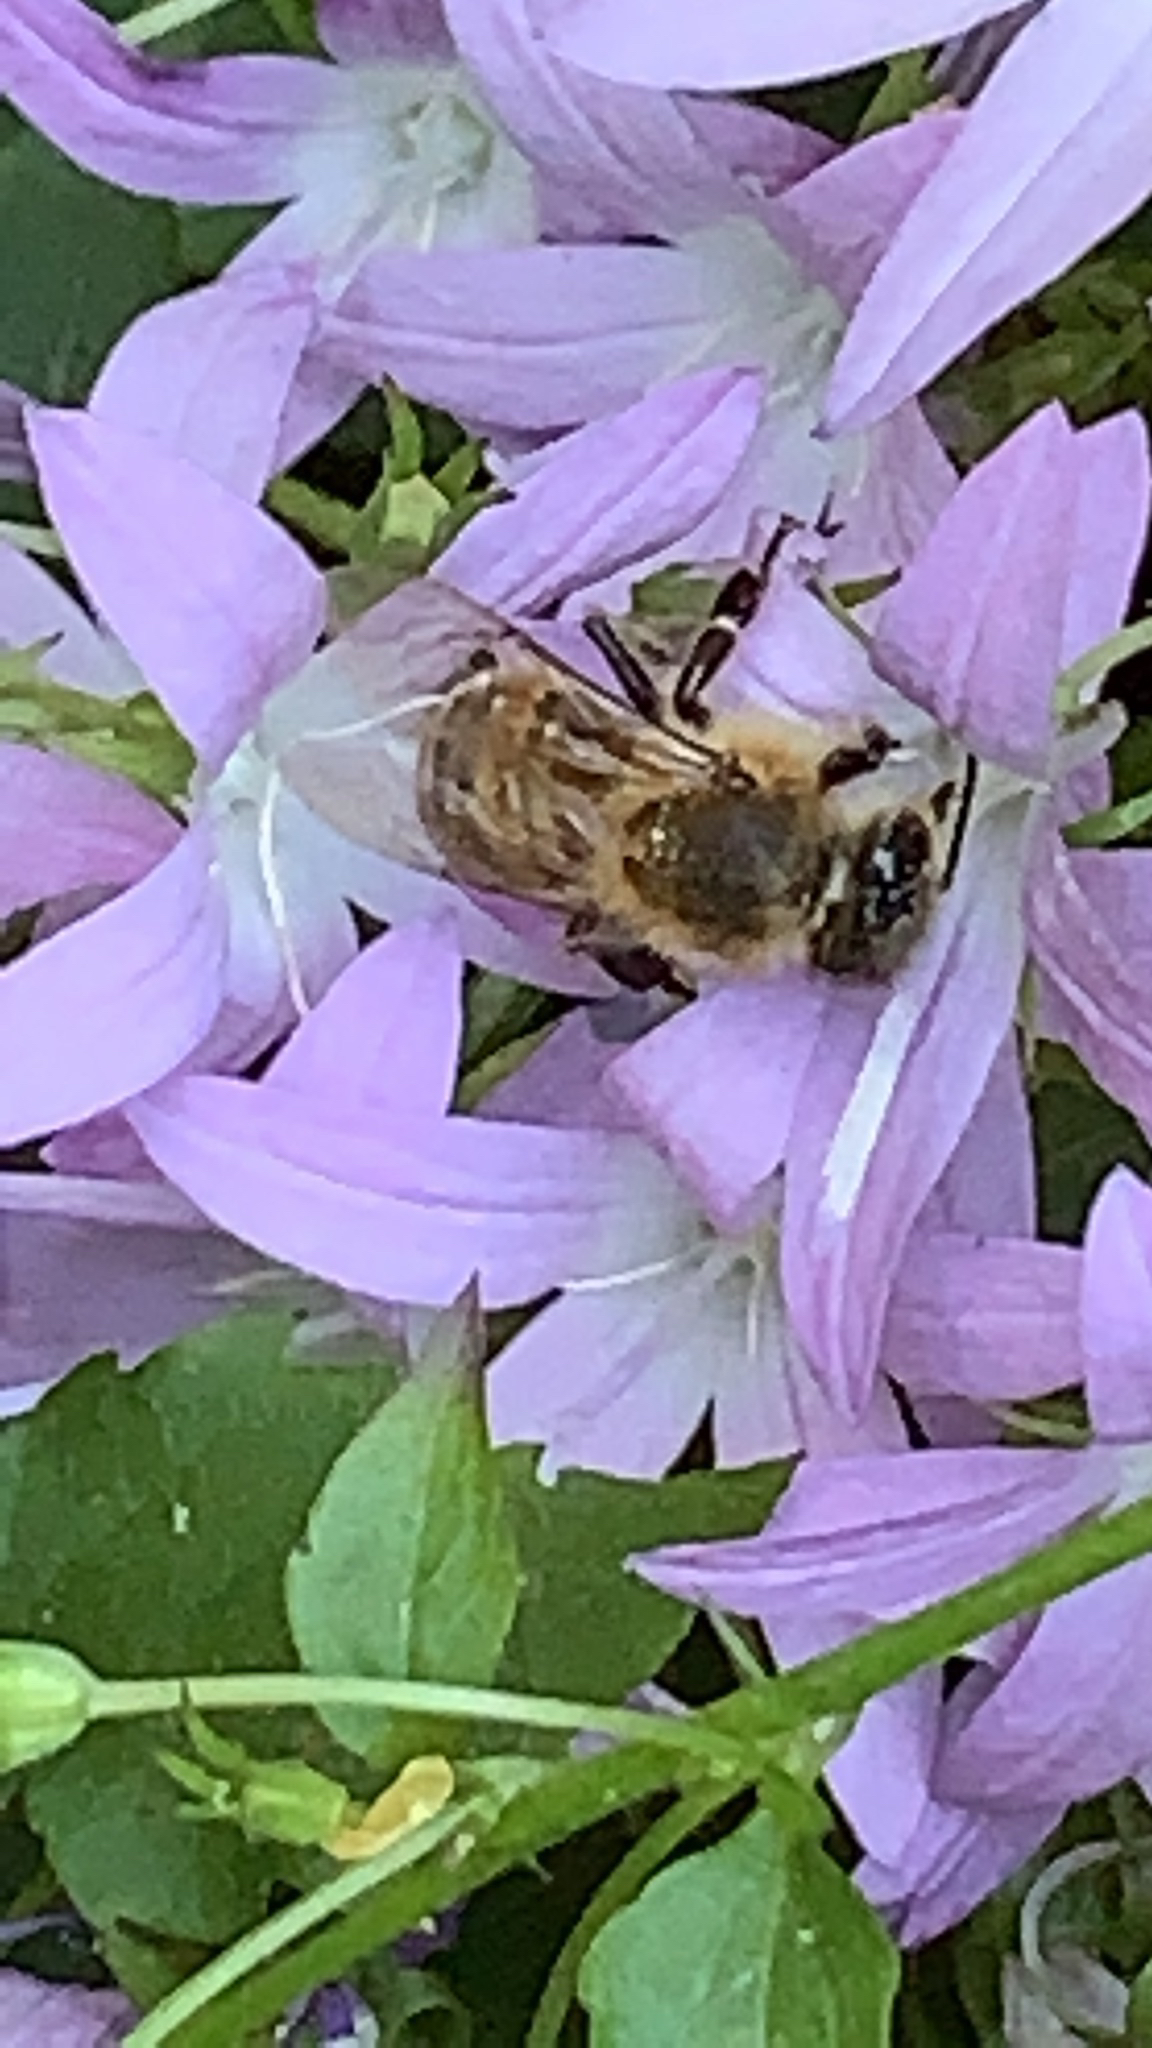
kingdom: Animalia
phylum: Arthropoda
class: Insecta
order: Hymenoptera
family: Apidae
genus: Apis
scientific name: Apis mellifera
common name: Honey bee
